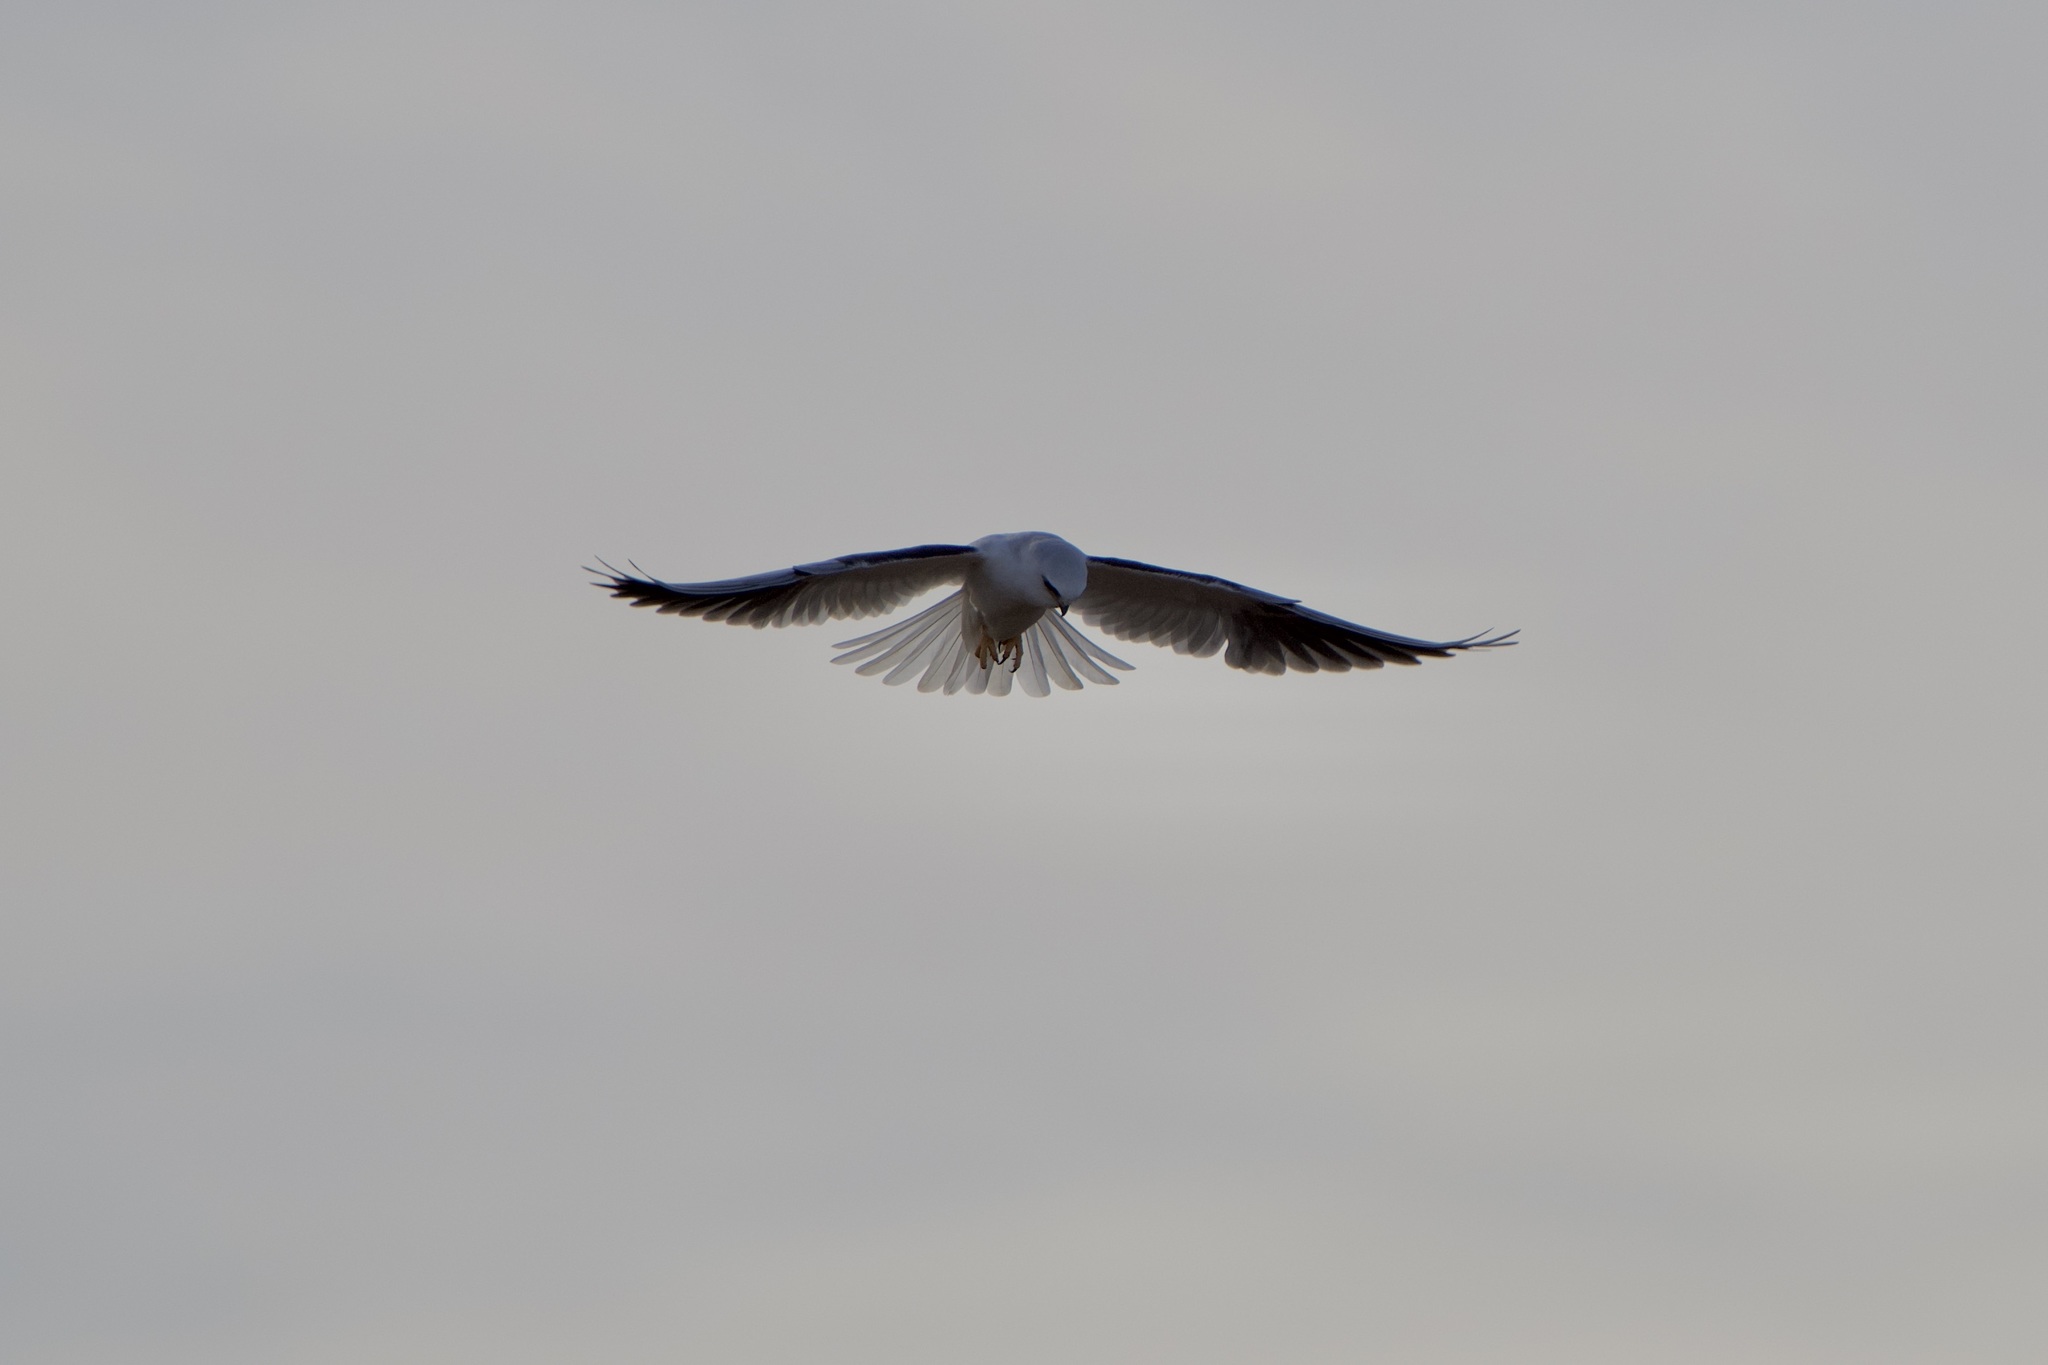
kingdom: Animalia
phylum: Chordata
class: Aves
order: Accipitriformes
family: Accipitridae
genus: Elanus
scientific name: Elanus leucurus
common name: White-tailed kite
